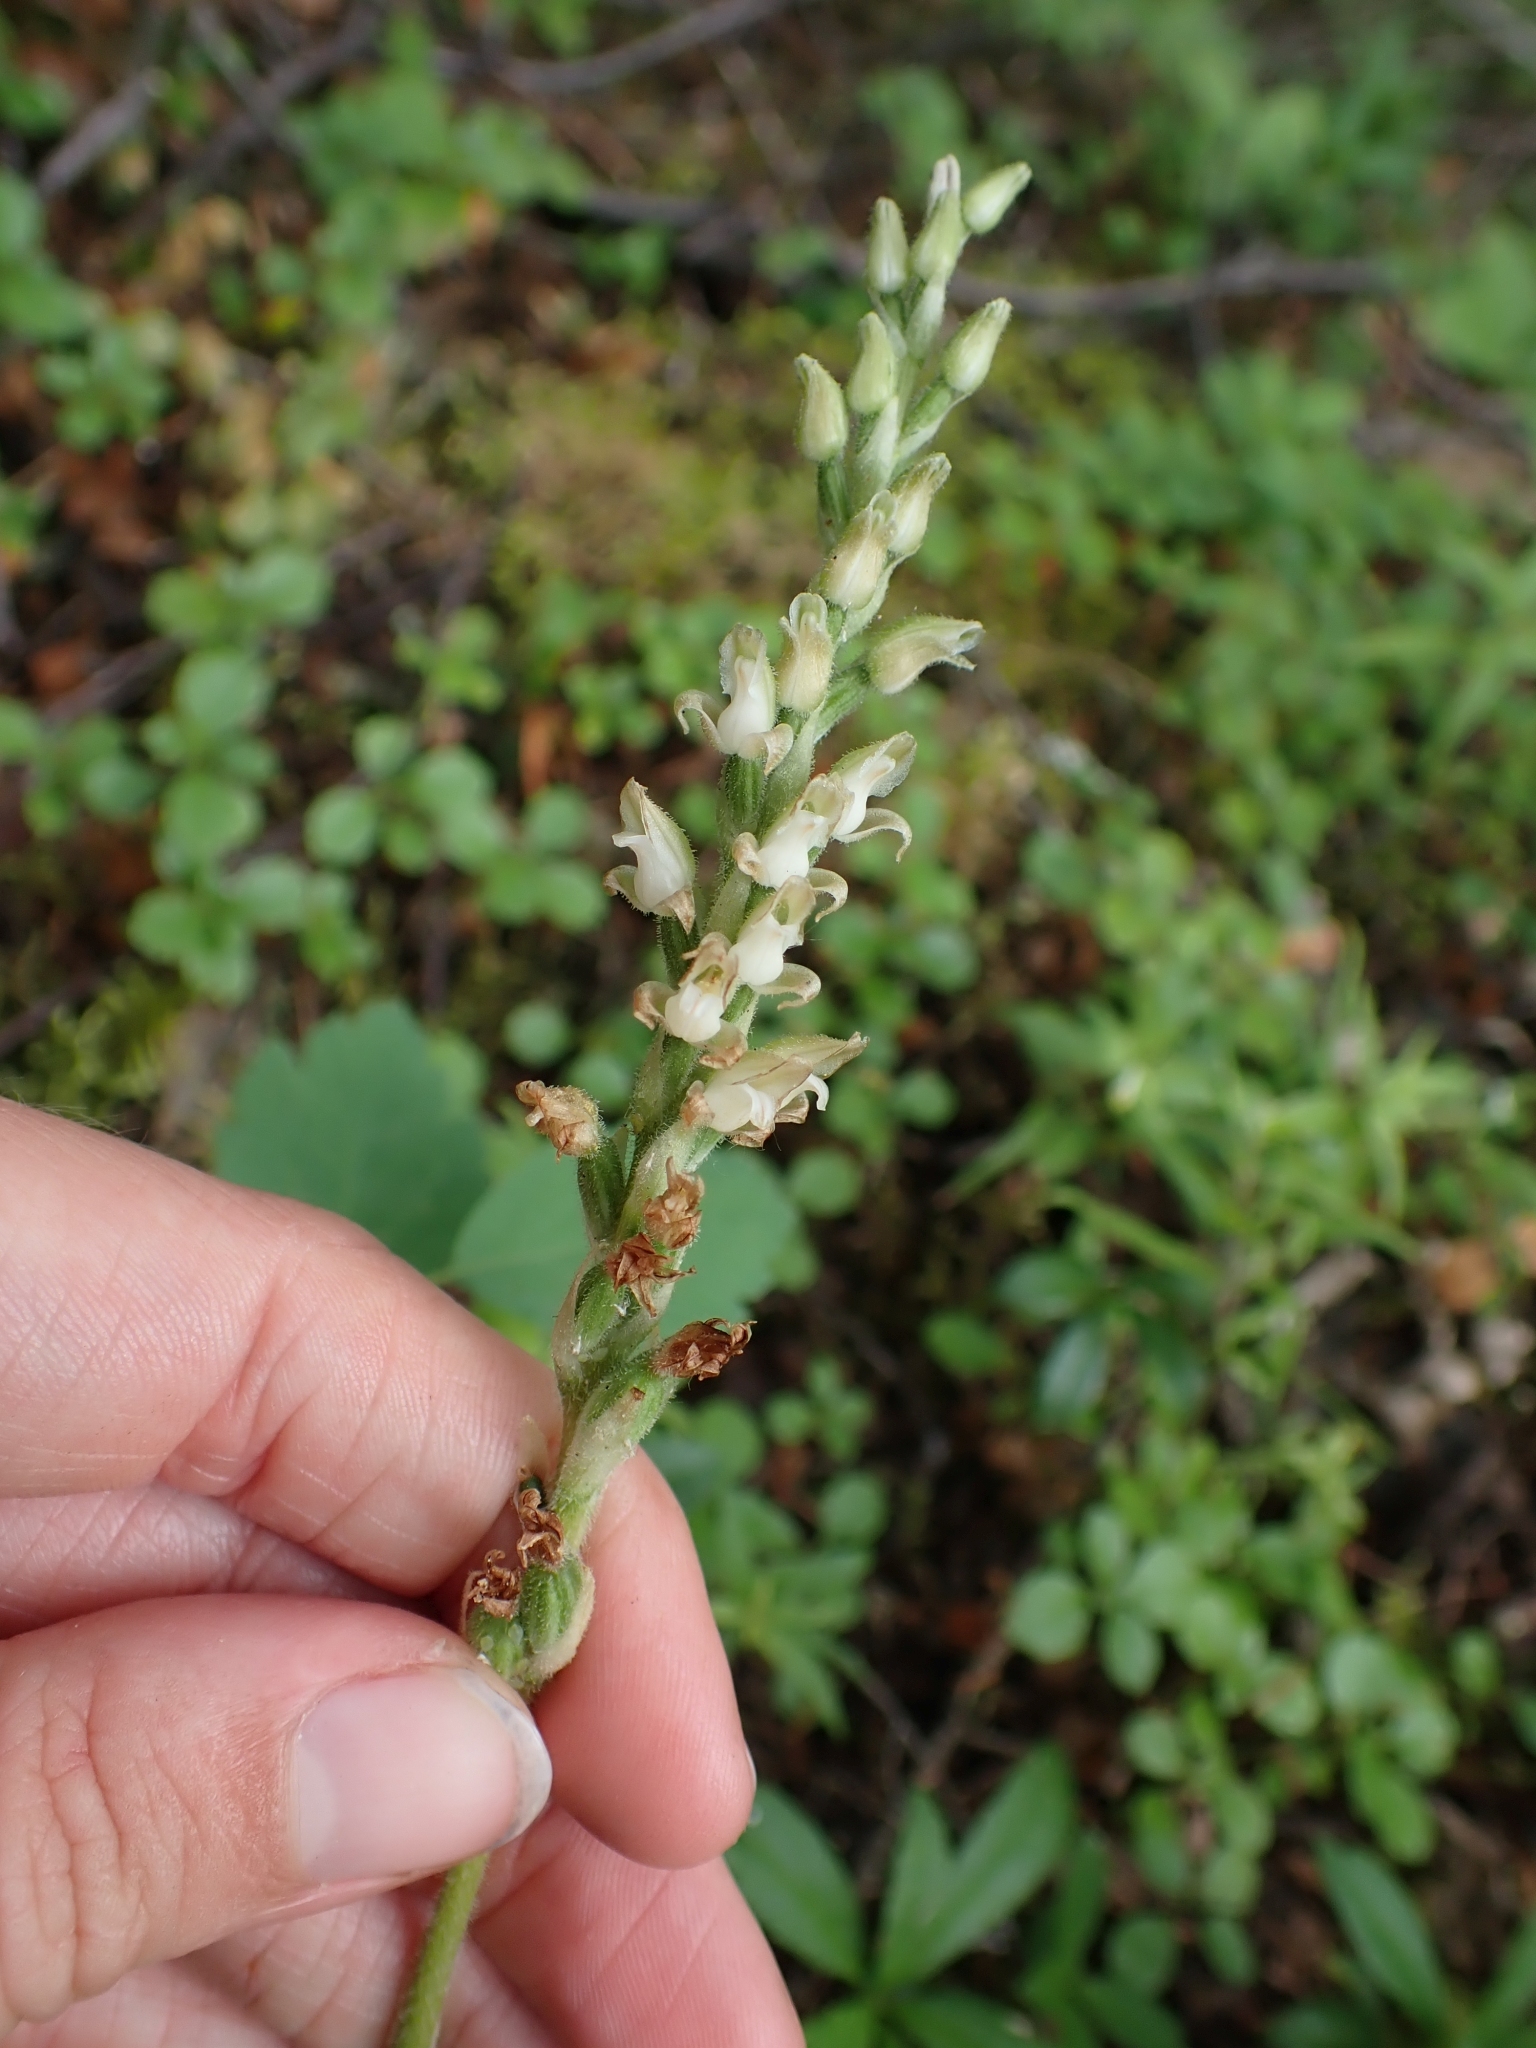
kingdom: Plantae
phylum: Tracheophyta
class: Liliopsida
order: Asparagales
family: Orchidaceae
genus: Goodyera
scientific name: Goodyera oblongifolia
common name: Giant rattlesnake-plantain
